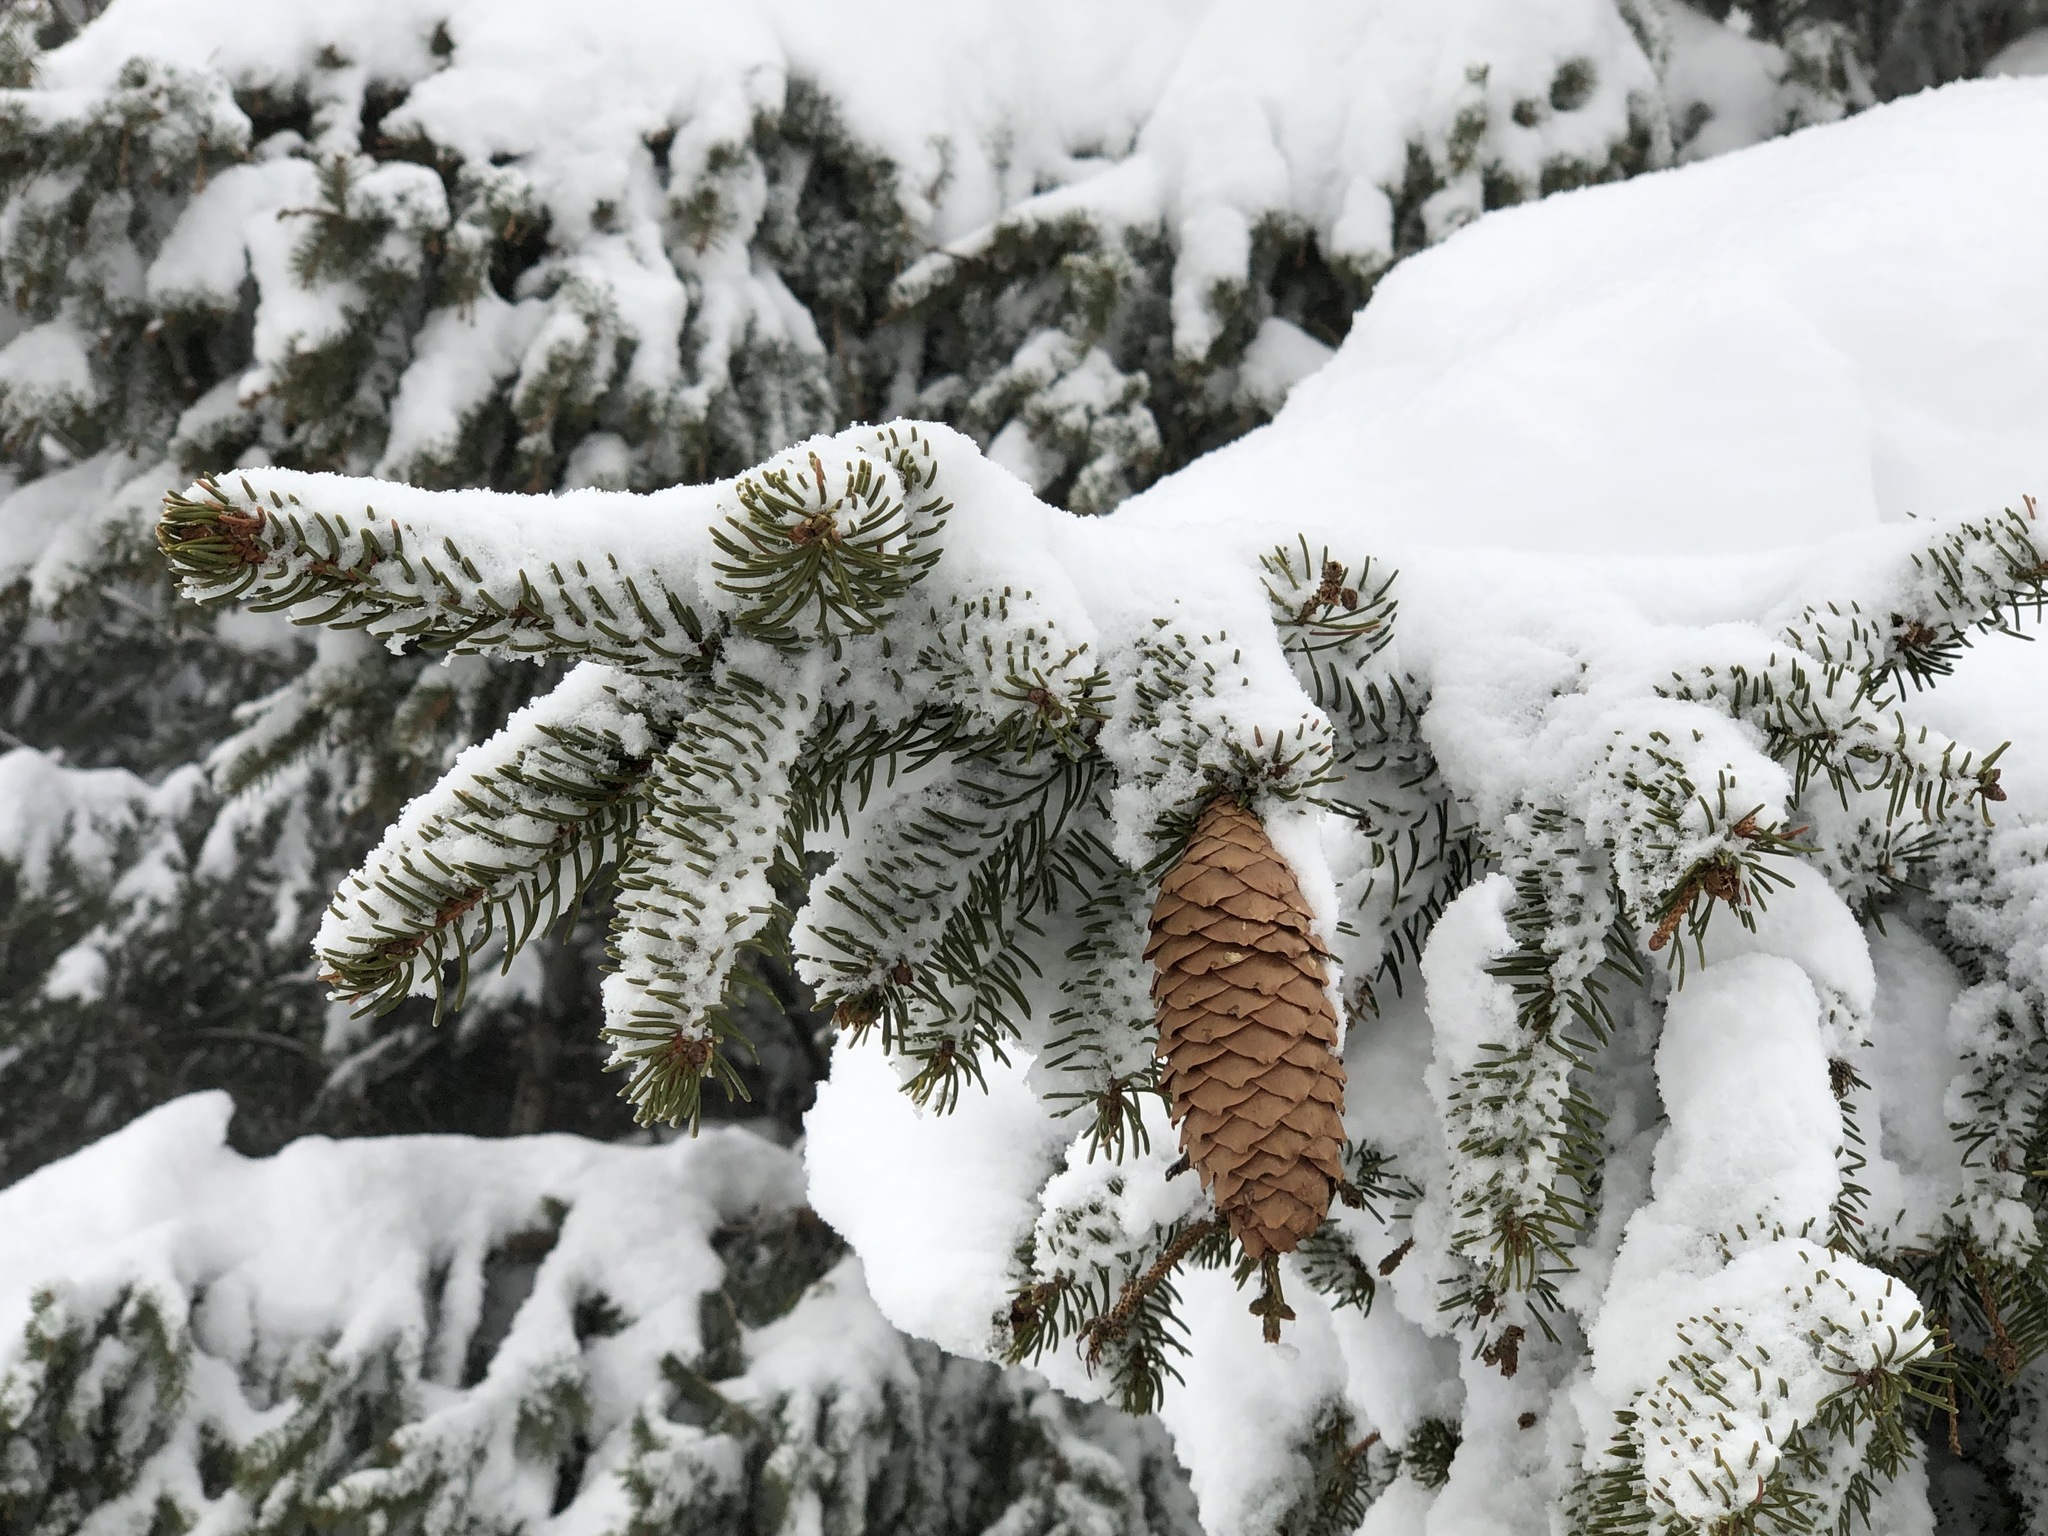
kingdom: Plantae
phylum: Tracheophyta
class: Pinopsida
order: Pinales
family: Pinaceae
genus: Picea
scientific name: Picea abies
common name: Norway spruce
